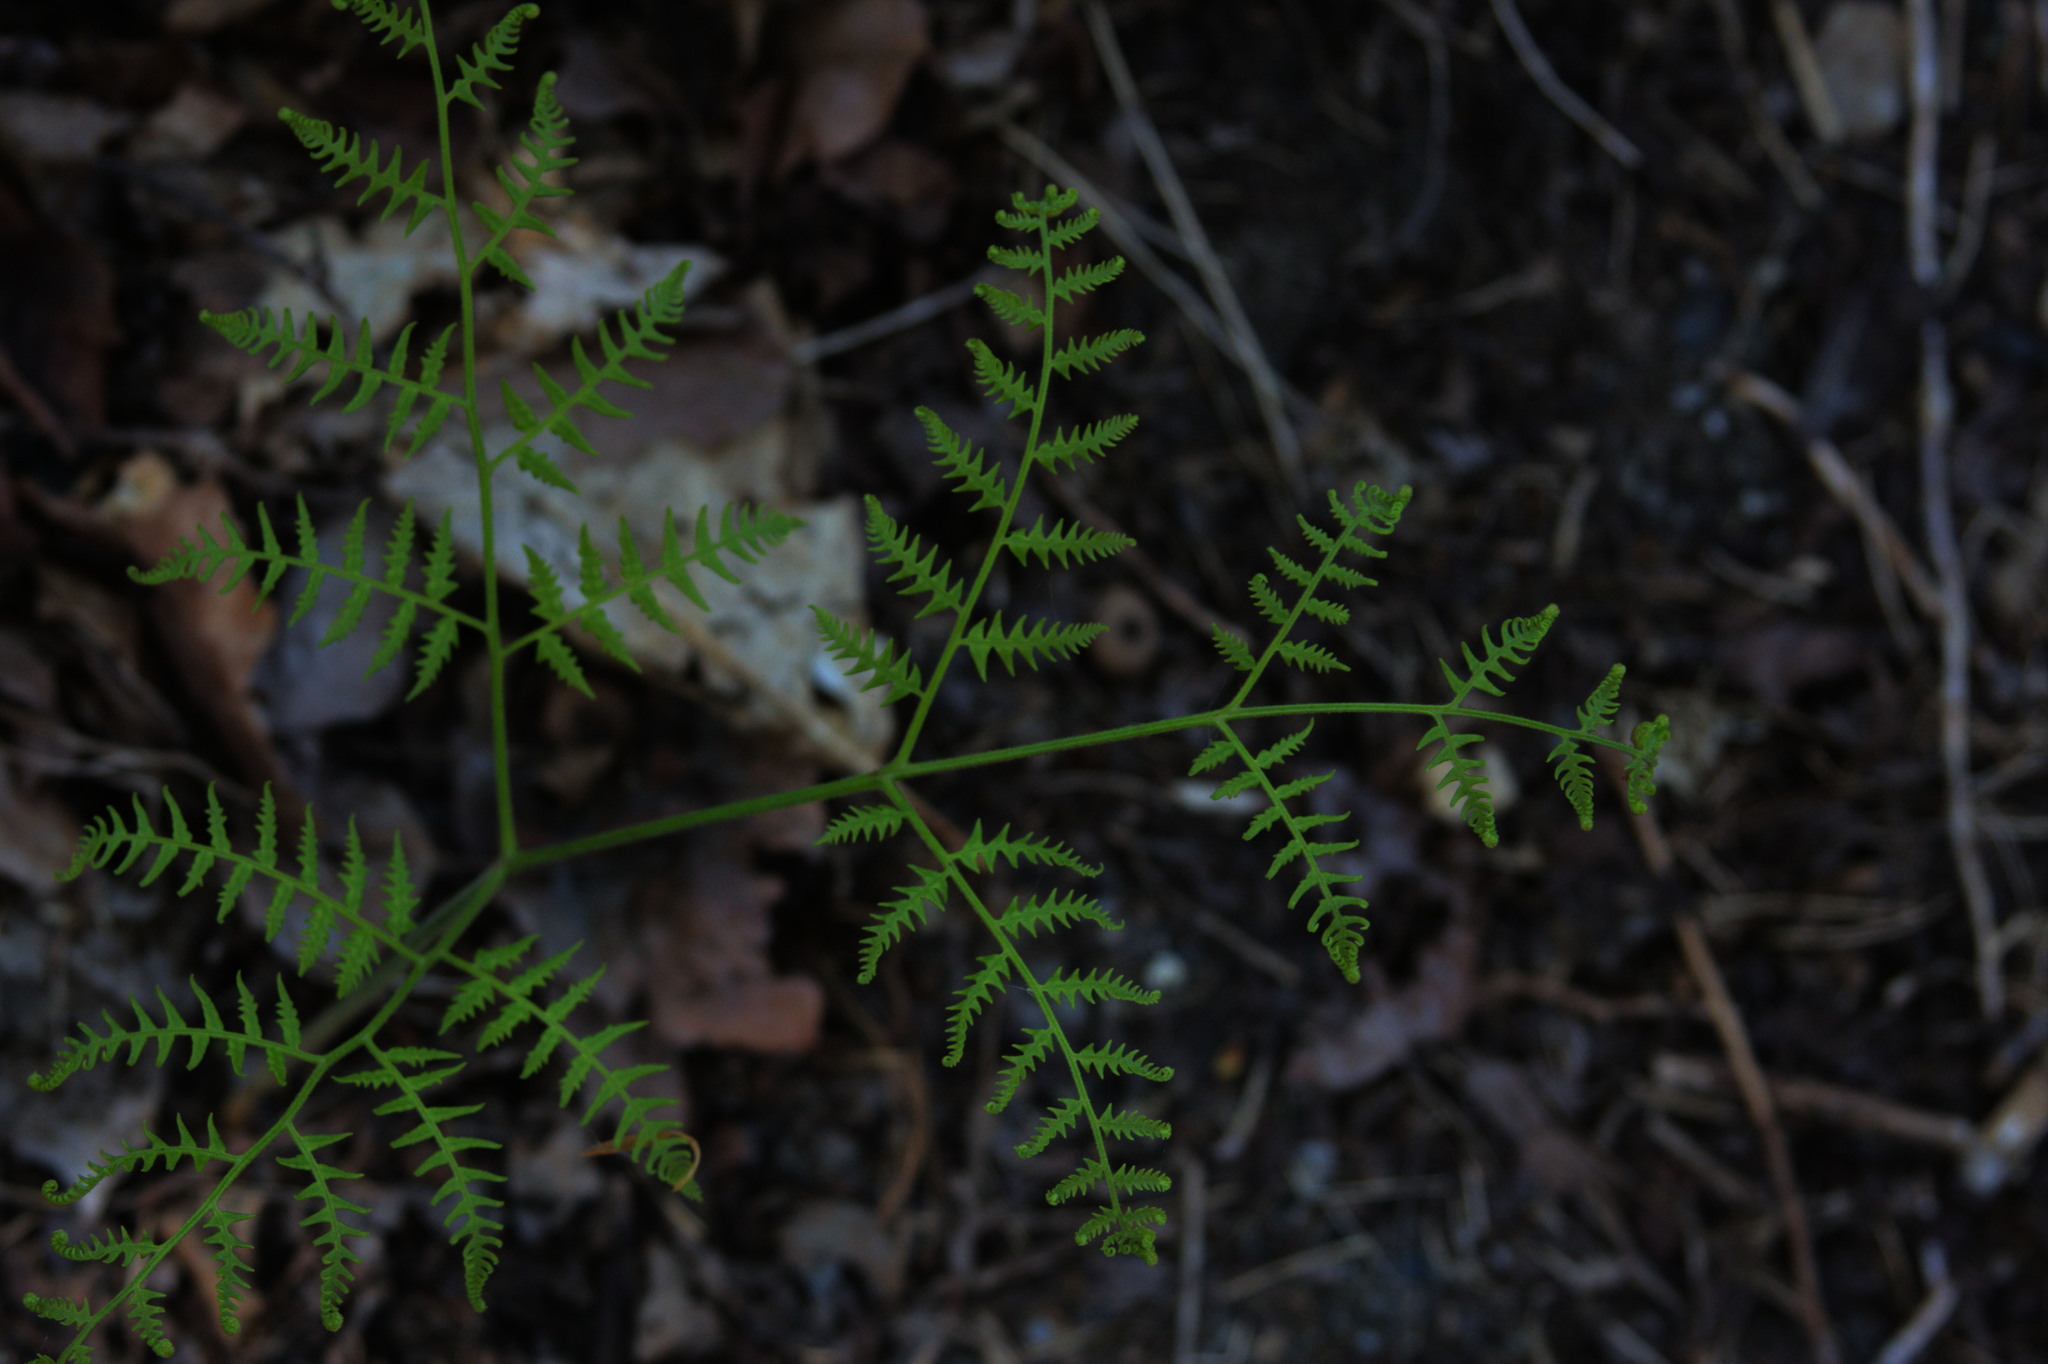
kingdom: Plantae
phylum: Tracheophyta
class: Polypodiopsida
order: Polypodiales
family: Dennstaedtiaceae
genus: Pteridium
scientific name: Pteridium aquilinum
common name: Bracken
